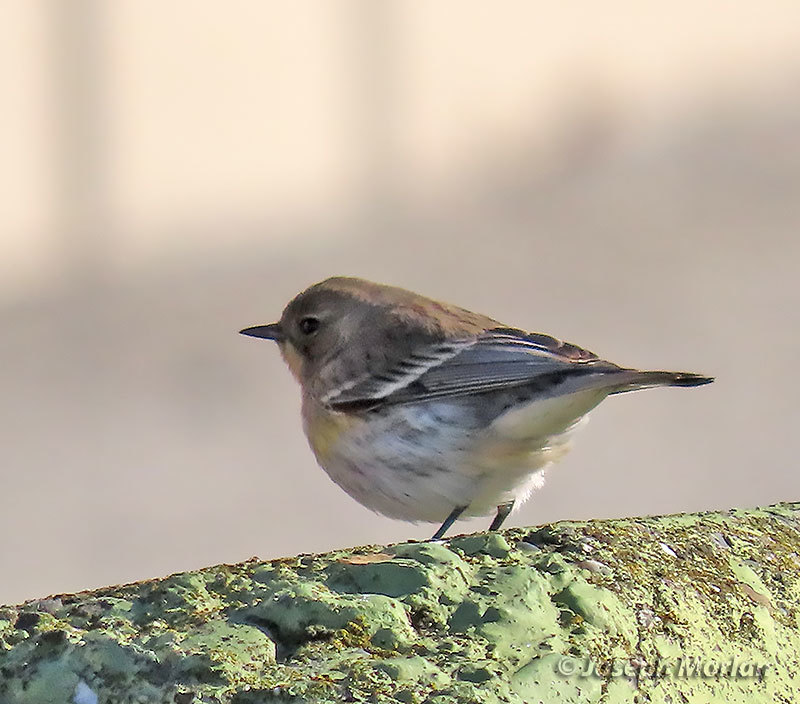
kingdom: Animalia
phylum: Chordata
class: Aves
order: Passeriformes
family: Parulidae
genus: Setophaga
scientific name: Setophaga coronata
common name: Myrtle warbler
